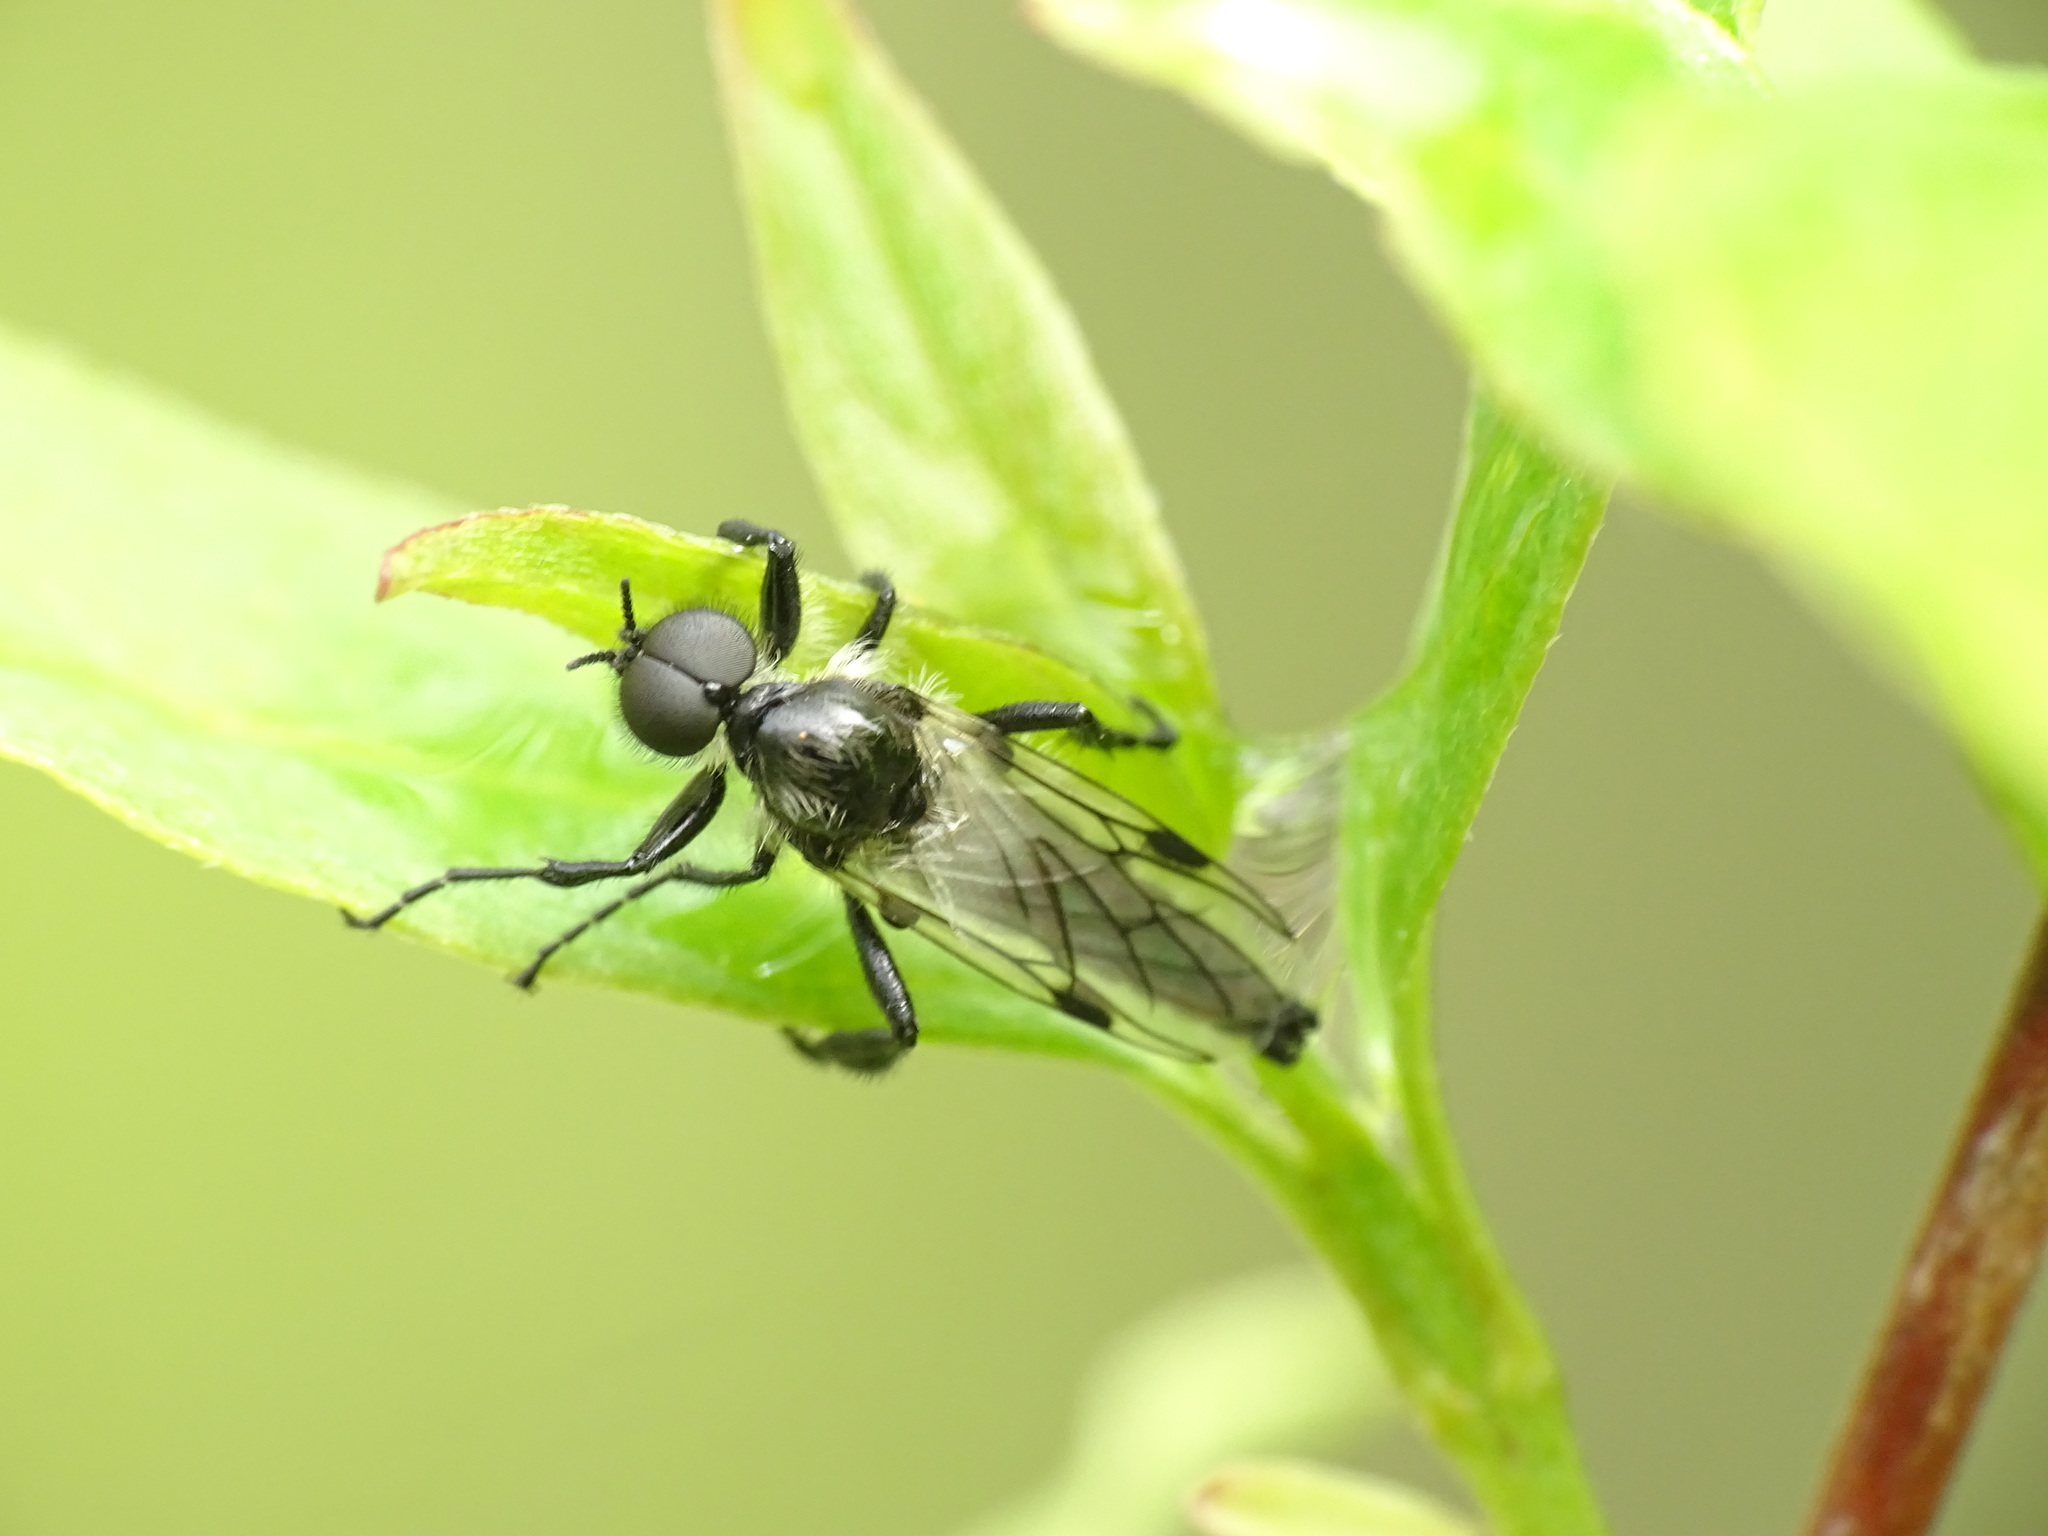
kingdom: Animalia
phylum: Arthropoda
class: Insecta
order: Diptera
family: Bibionidae
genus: Bibio
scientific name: Bibio albipennis
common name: White-winged march fly
